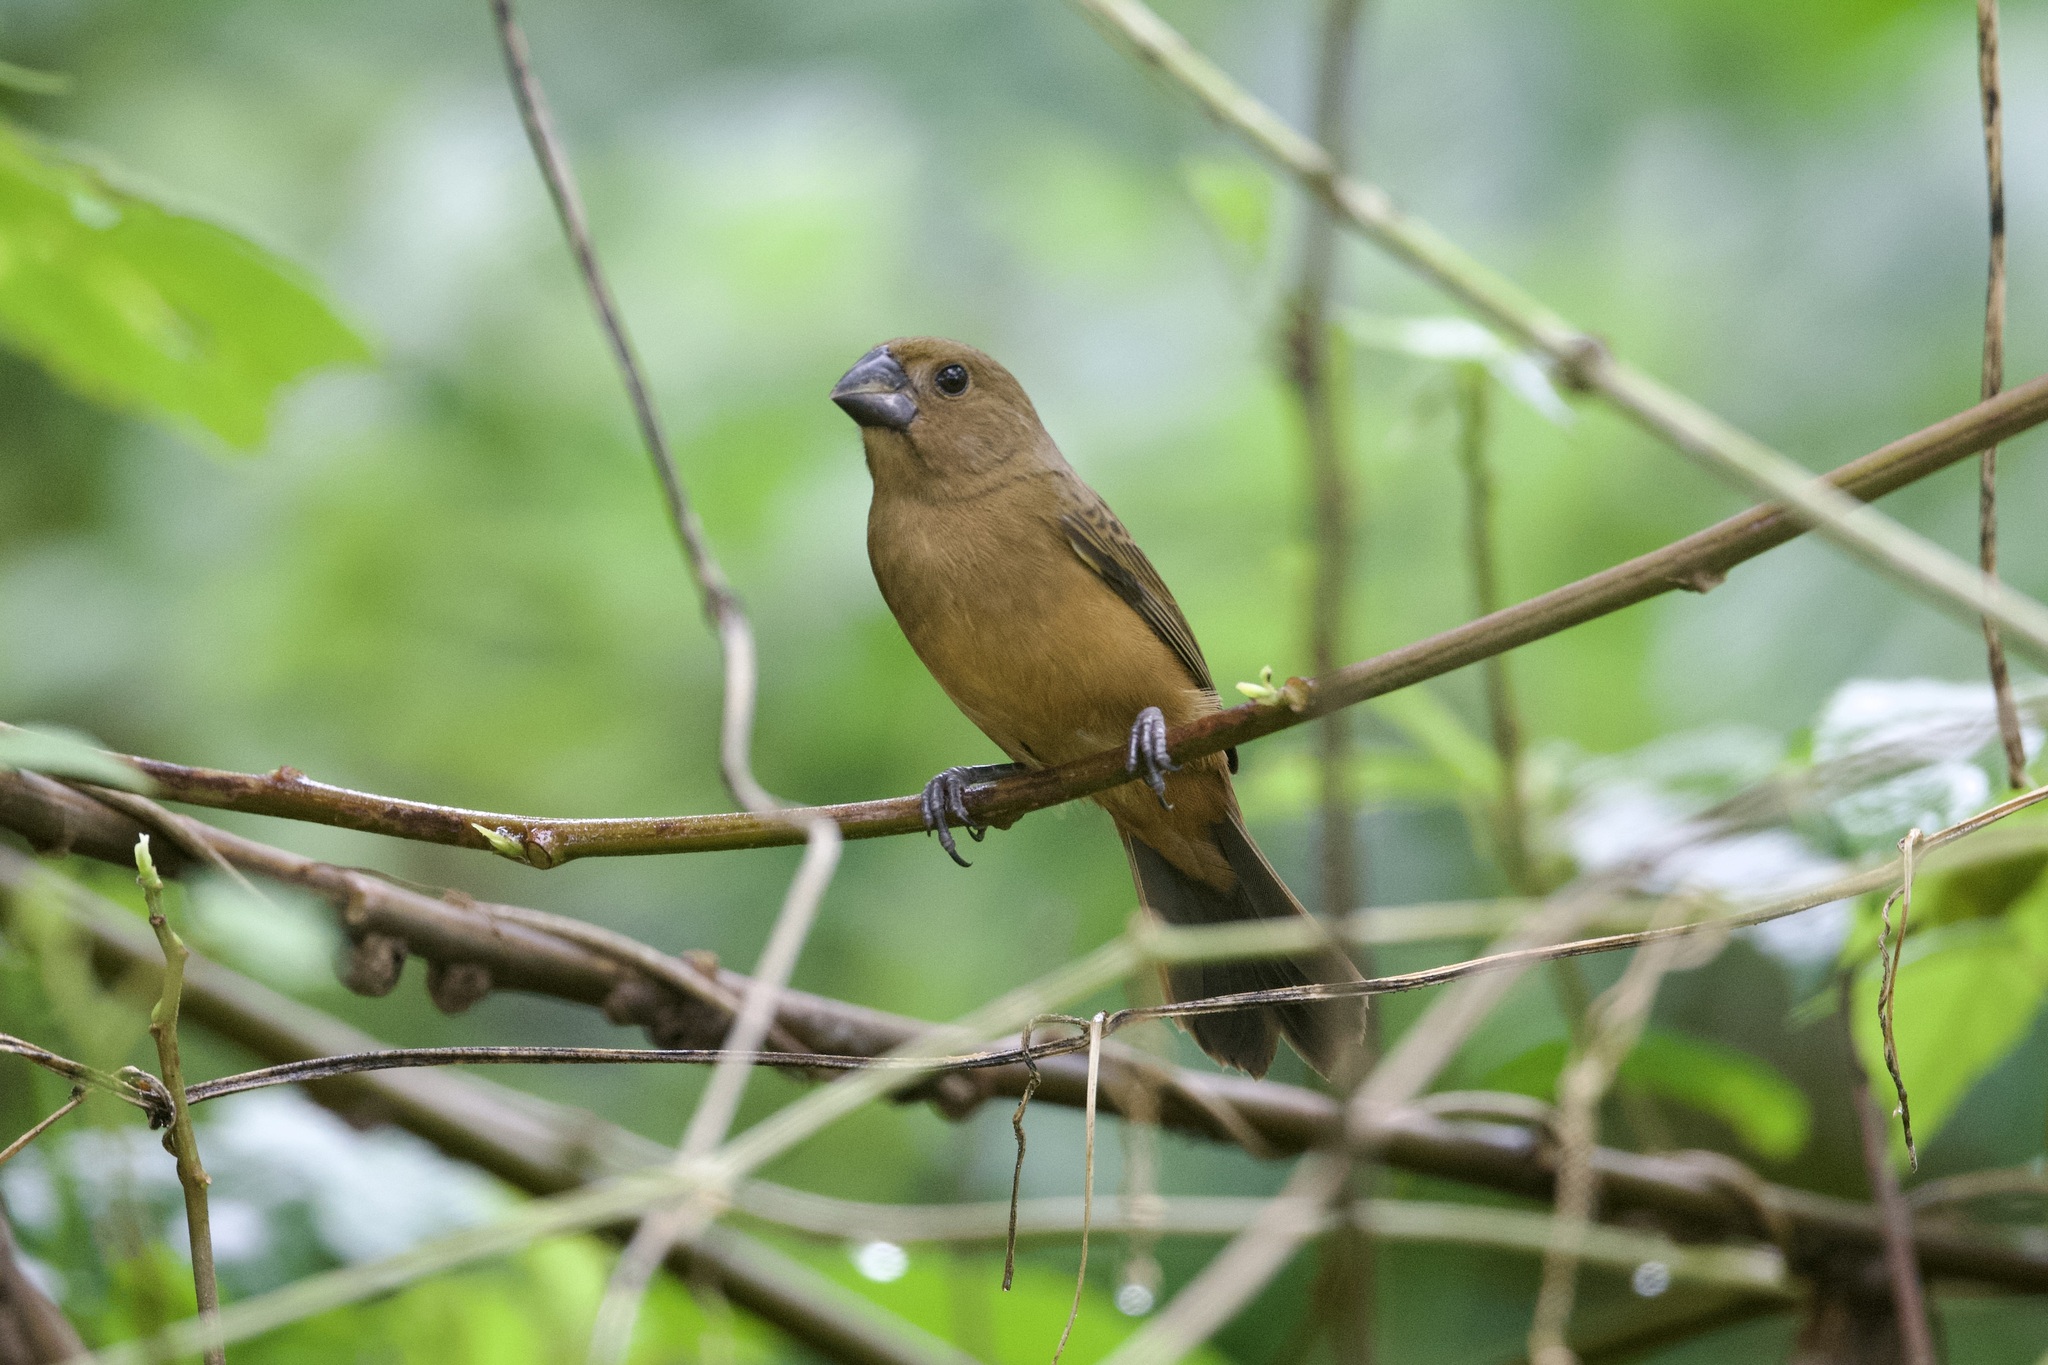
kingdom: Animalia
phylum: Chordata
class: Aves
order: Passeriformes
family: Thraupidae
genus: Sporophila
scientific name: Sporophila funerea
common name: Thick-billed seed-finch
